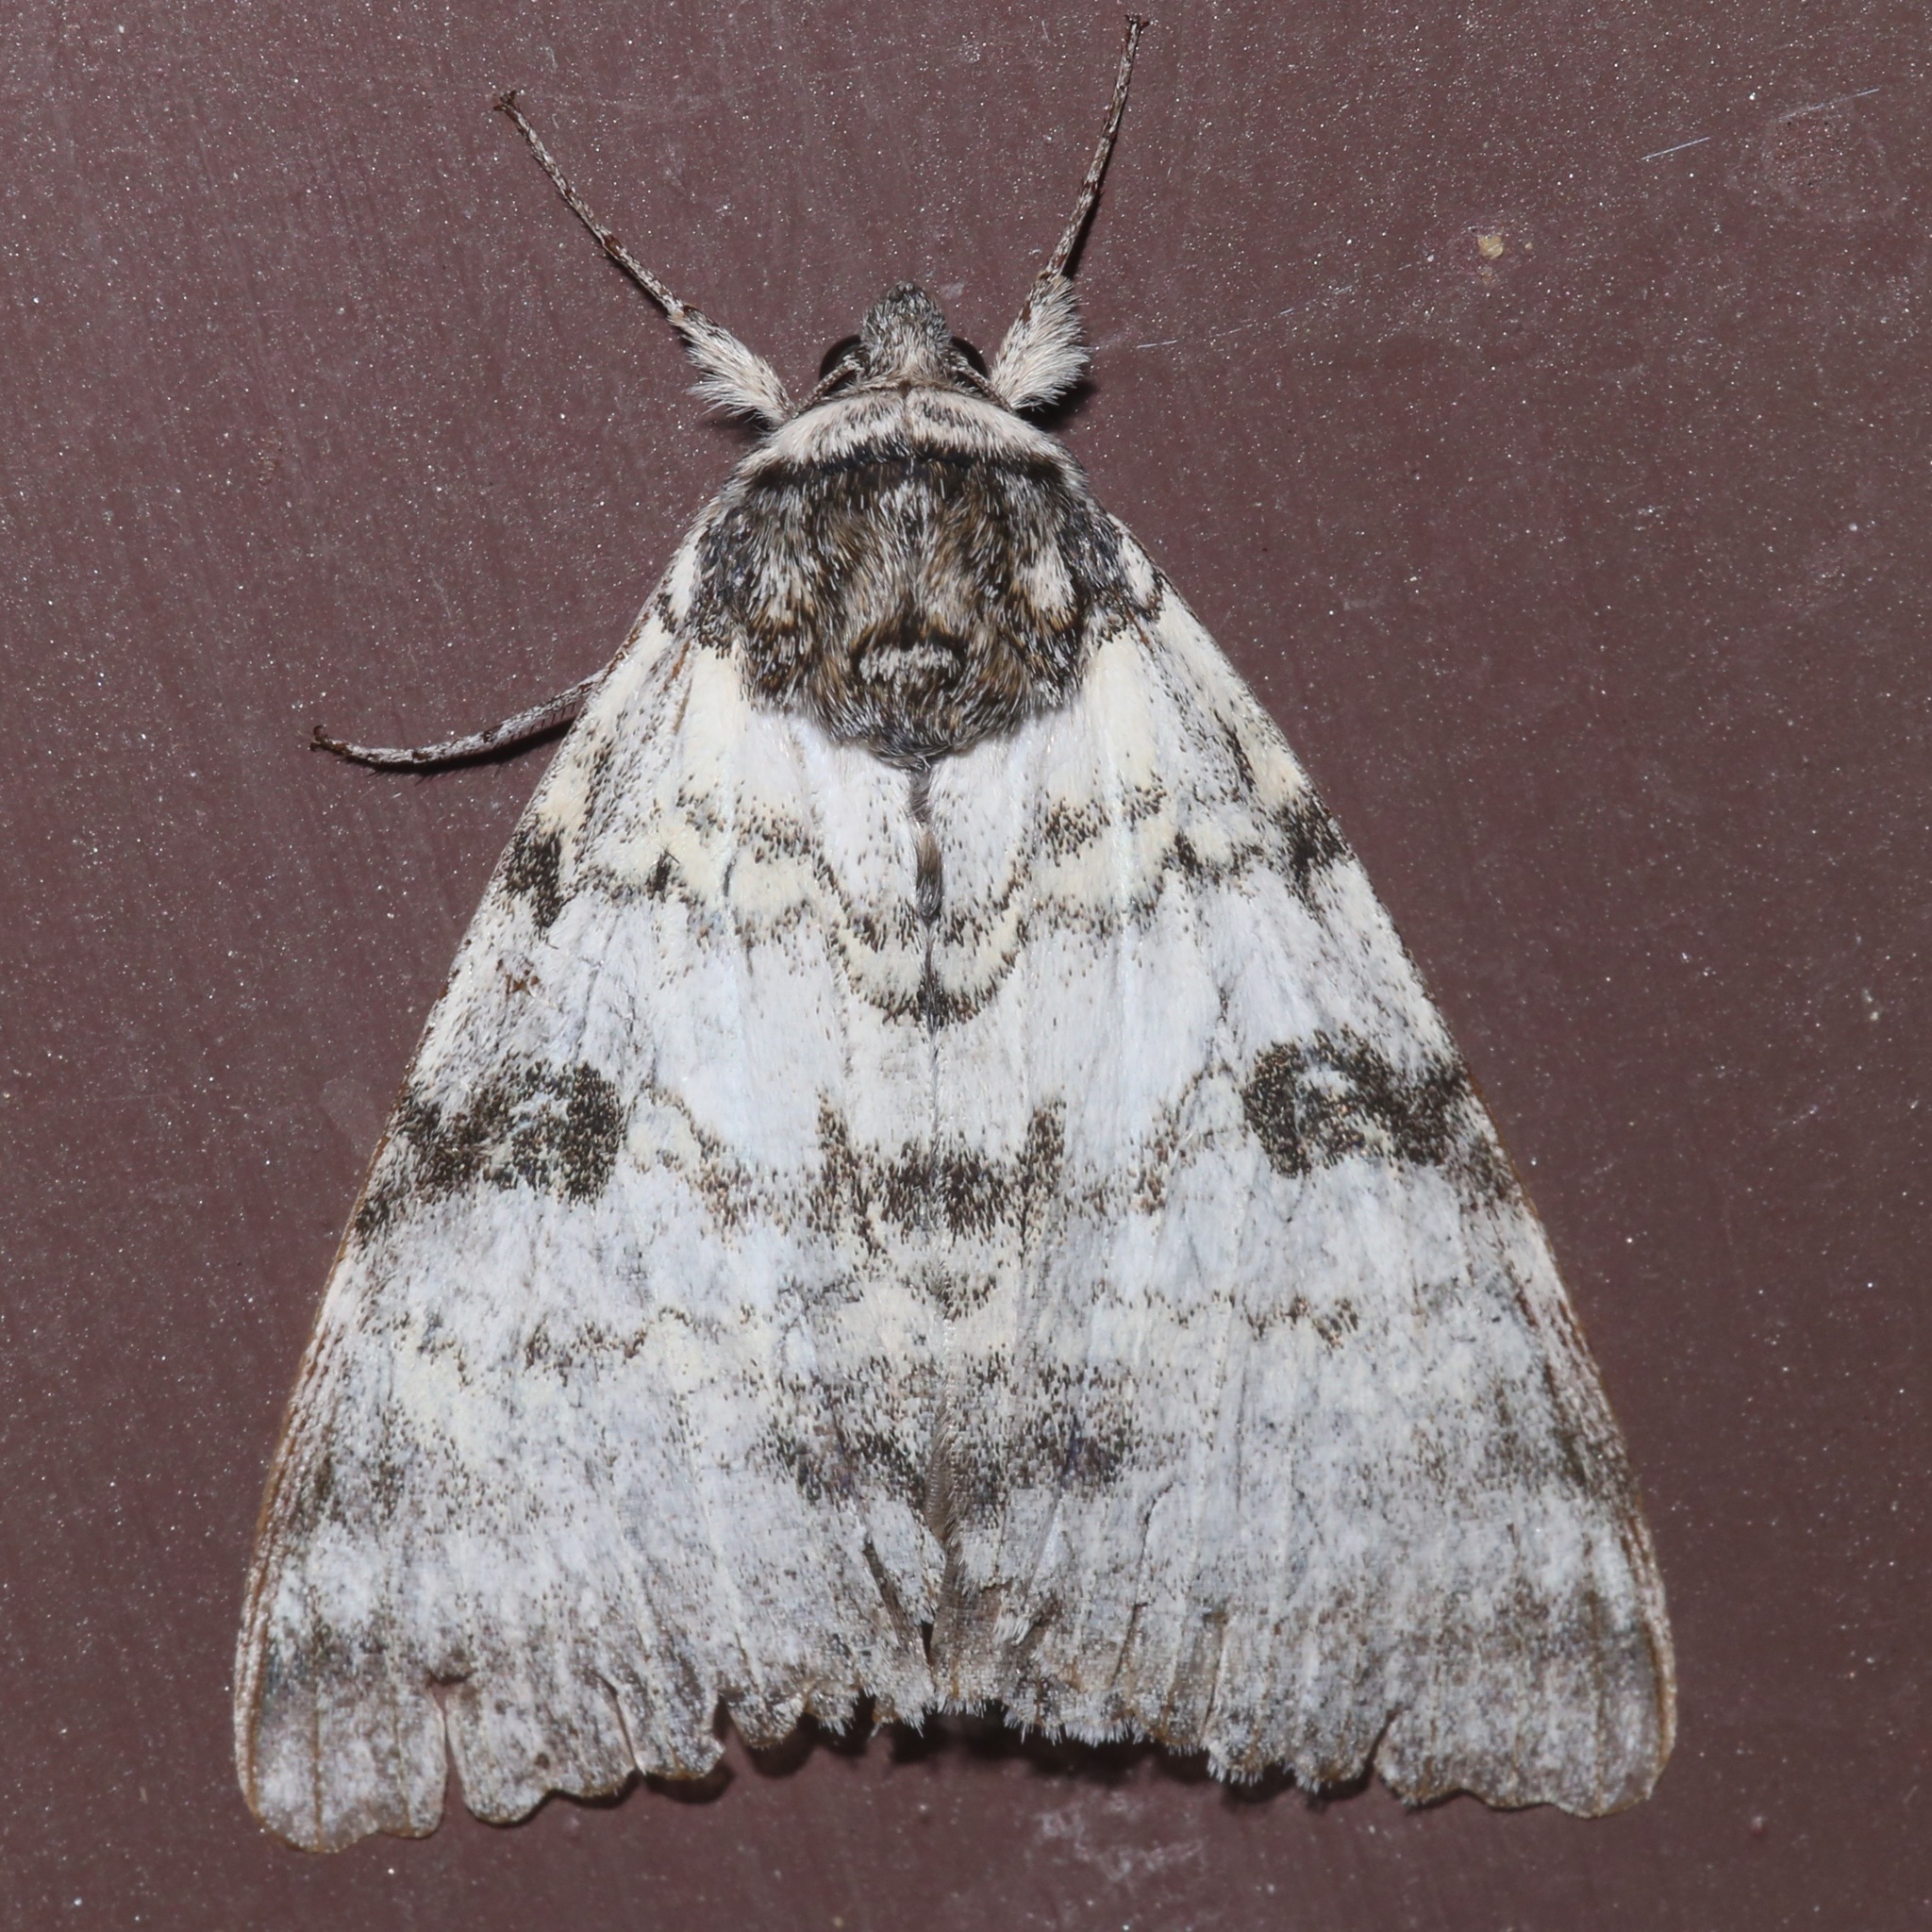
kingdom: Animalia
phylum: Arthropoda
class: Insecta
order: Lepidoptera
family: Erebidae
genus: Catocala
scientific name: Catocala relicta
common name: White underwing
